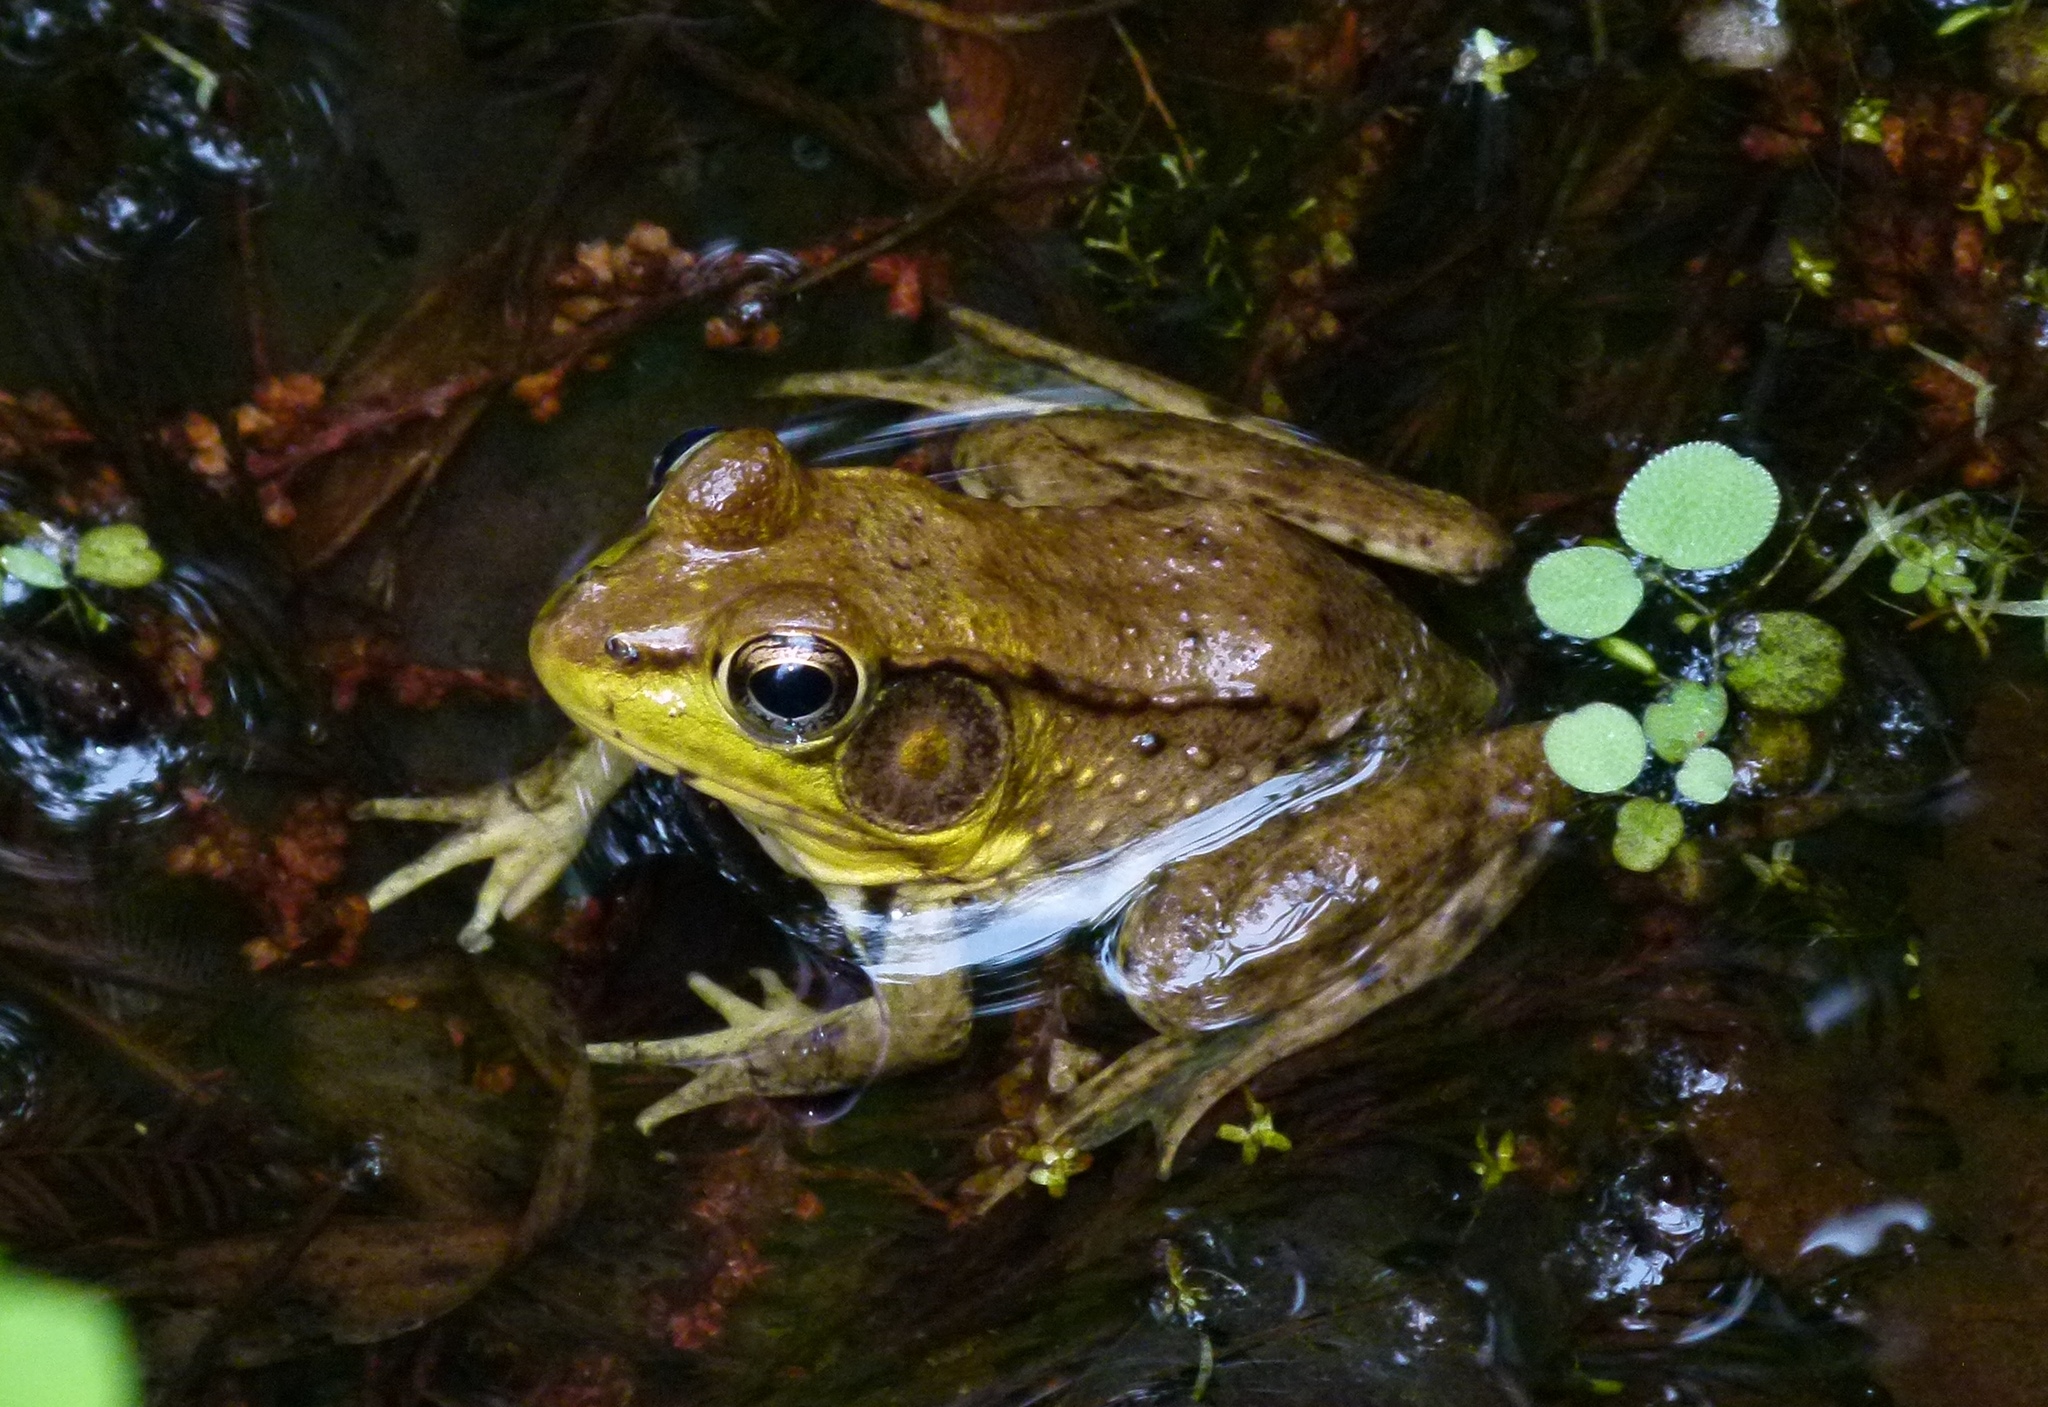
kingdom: Animalia
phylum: Chordata
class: Amphibia
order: Anura
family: Ranidae
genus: Lithobates
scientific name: Lithobates clamitans
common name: Green frog
